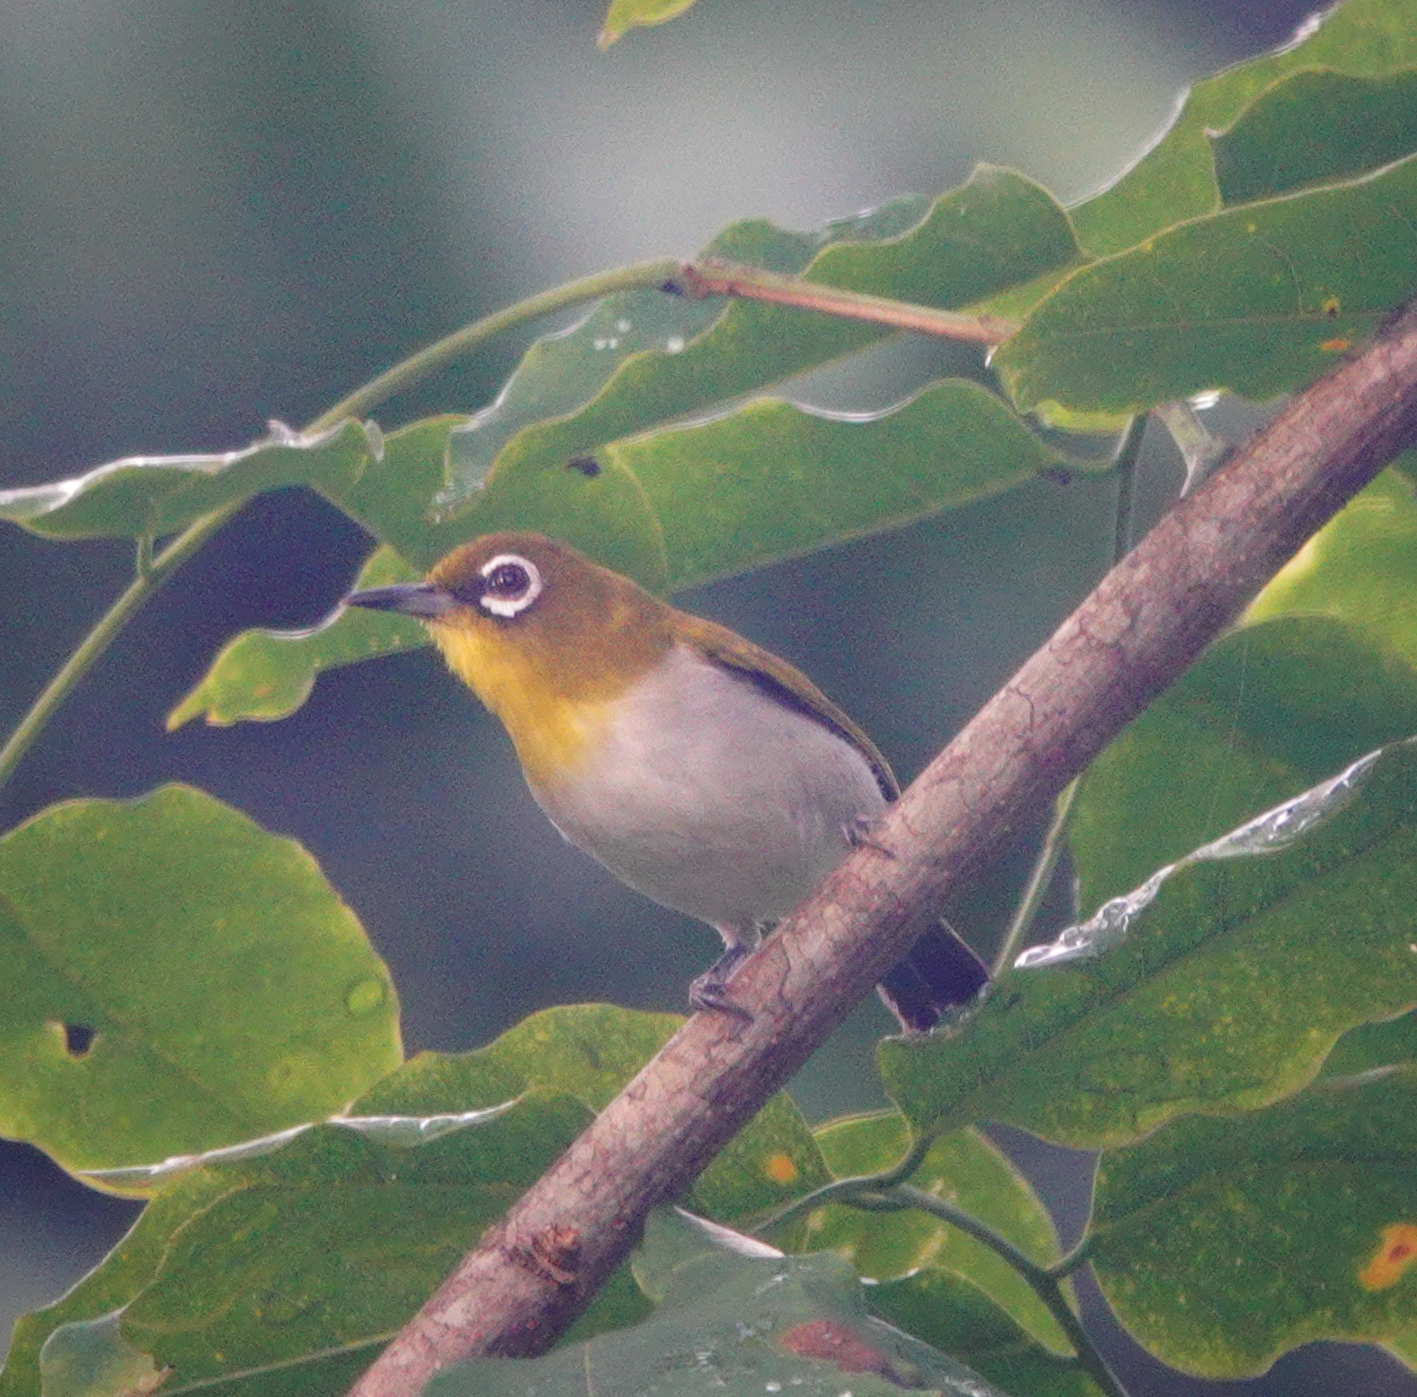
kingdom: Animalia
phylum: Chordata
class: Aves
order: Passeriformes
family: Zosteropidae
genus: Zosterops
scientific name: Zosterops kuehni
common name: Ambon white-eye
